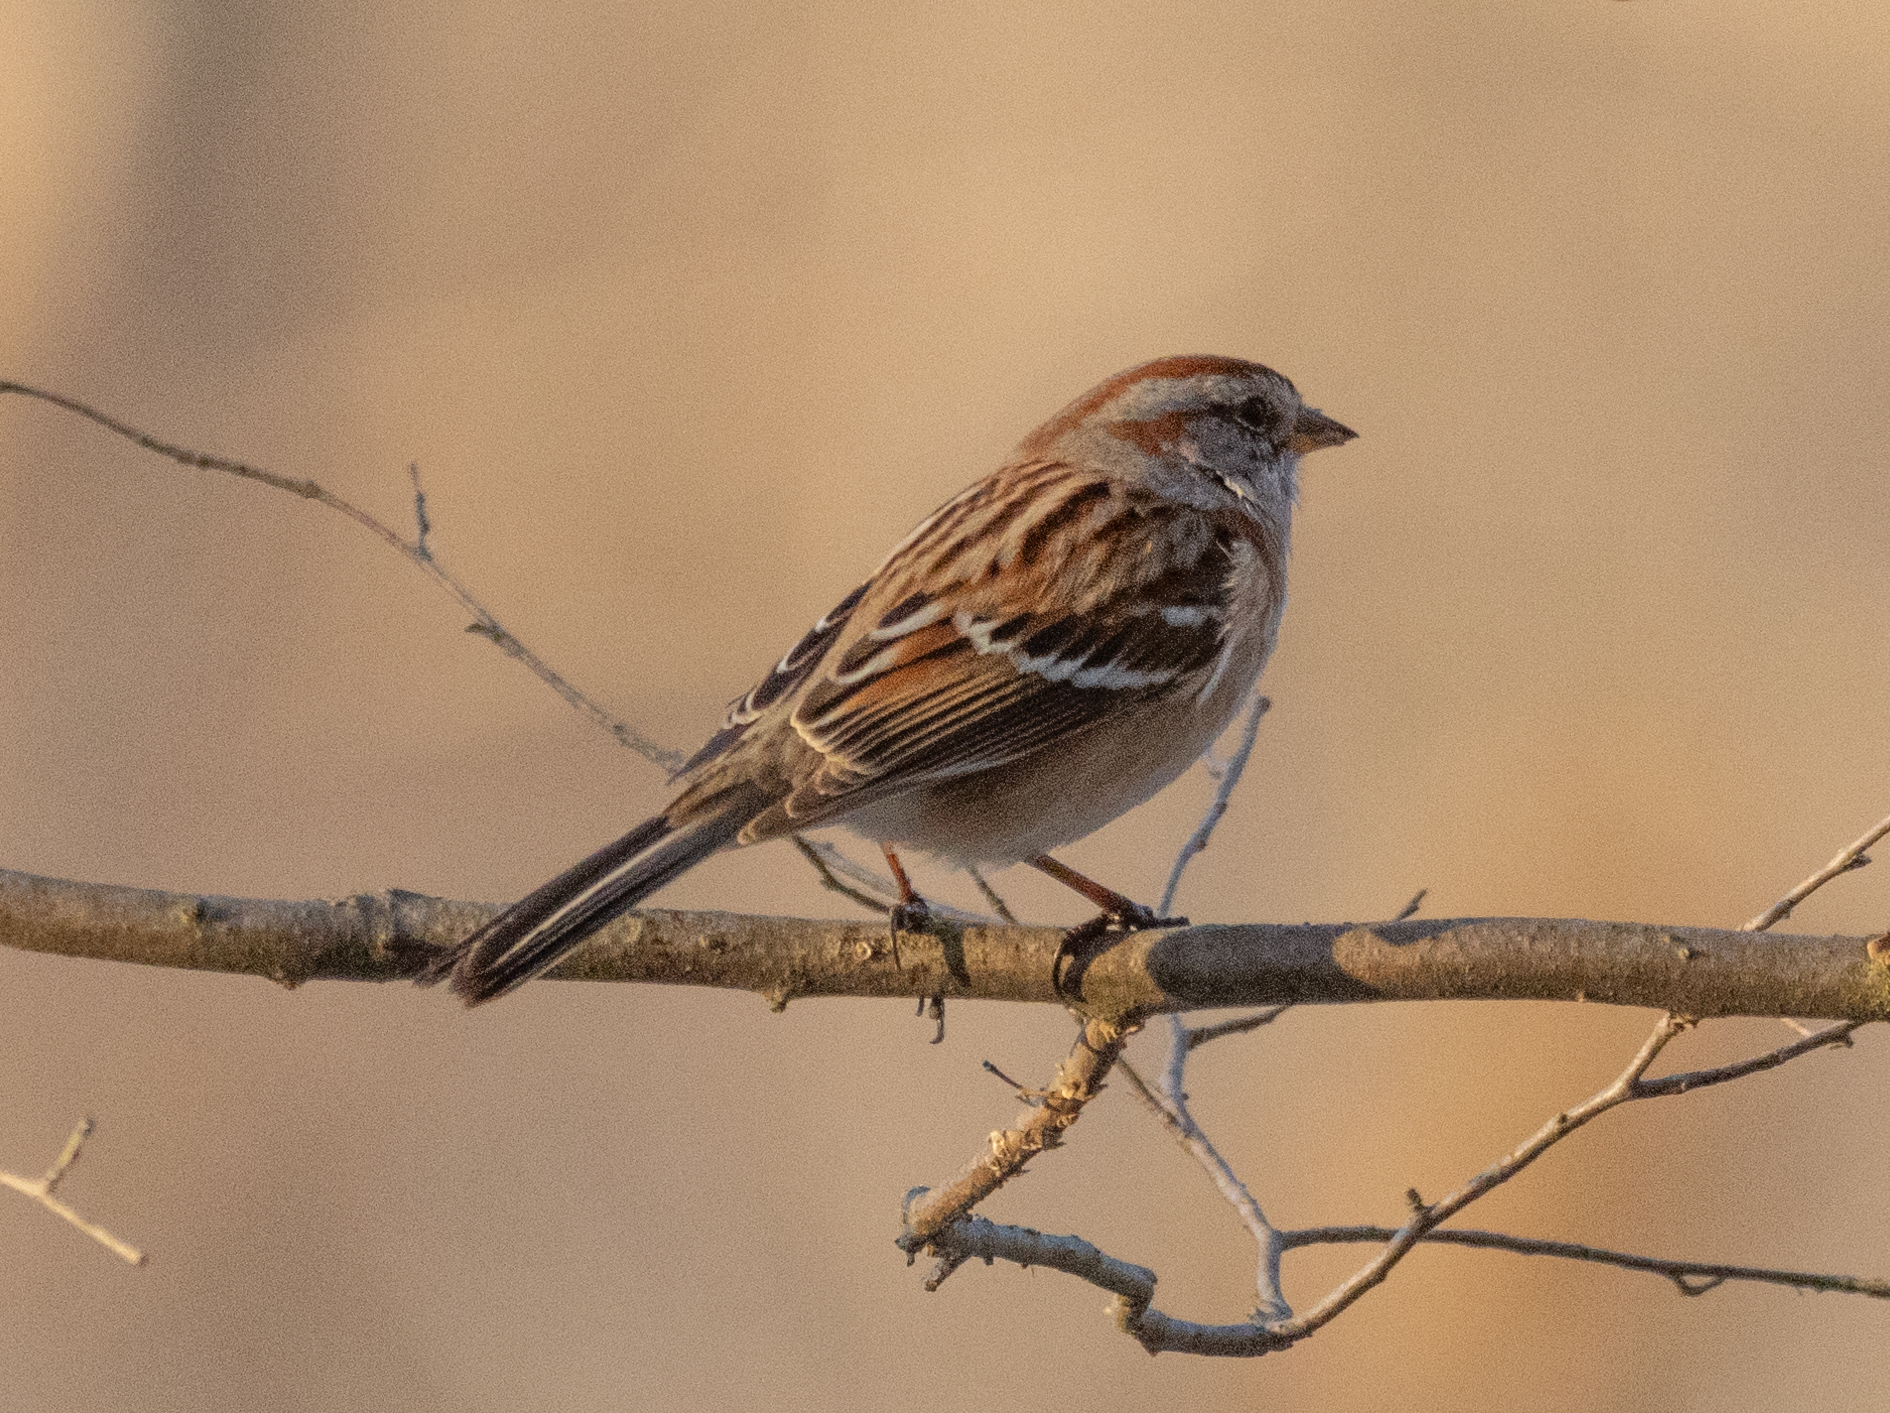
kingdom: Animalia
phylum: Chordata
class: Aves
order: Passeriformes
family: Passerellidae
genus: Spizelloides
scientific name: Spizelloides arborea
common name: American tree sparrow
